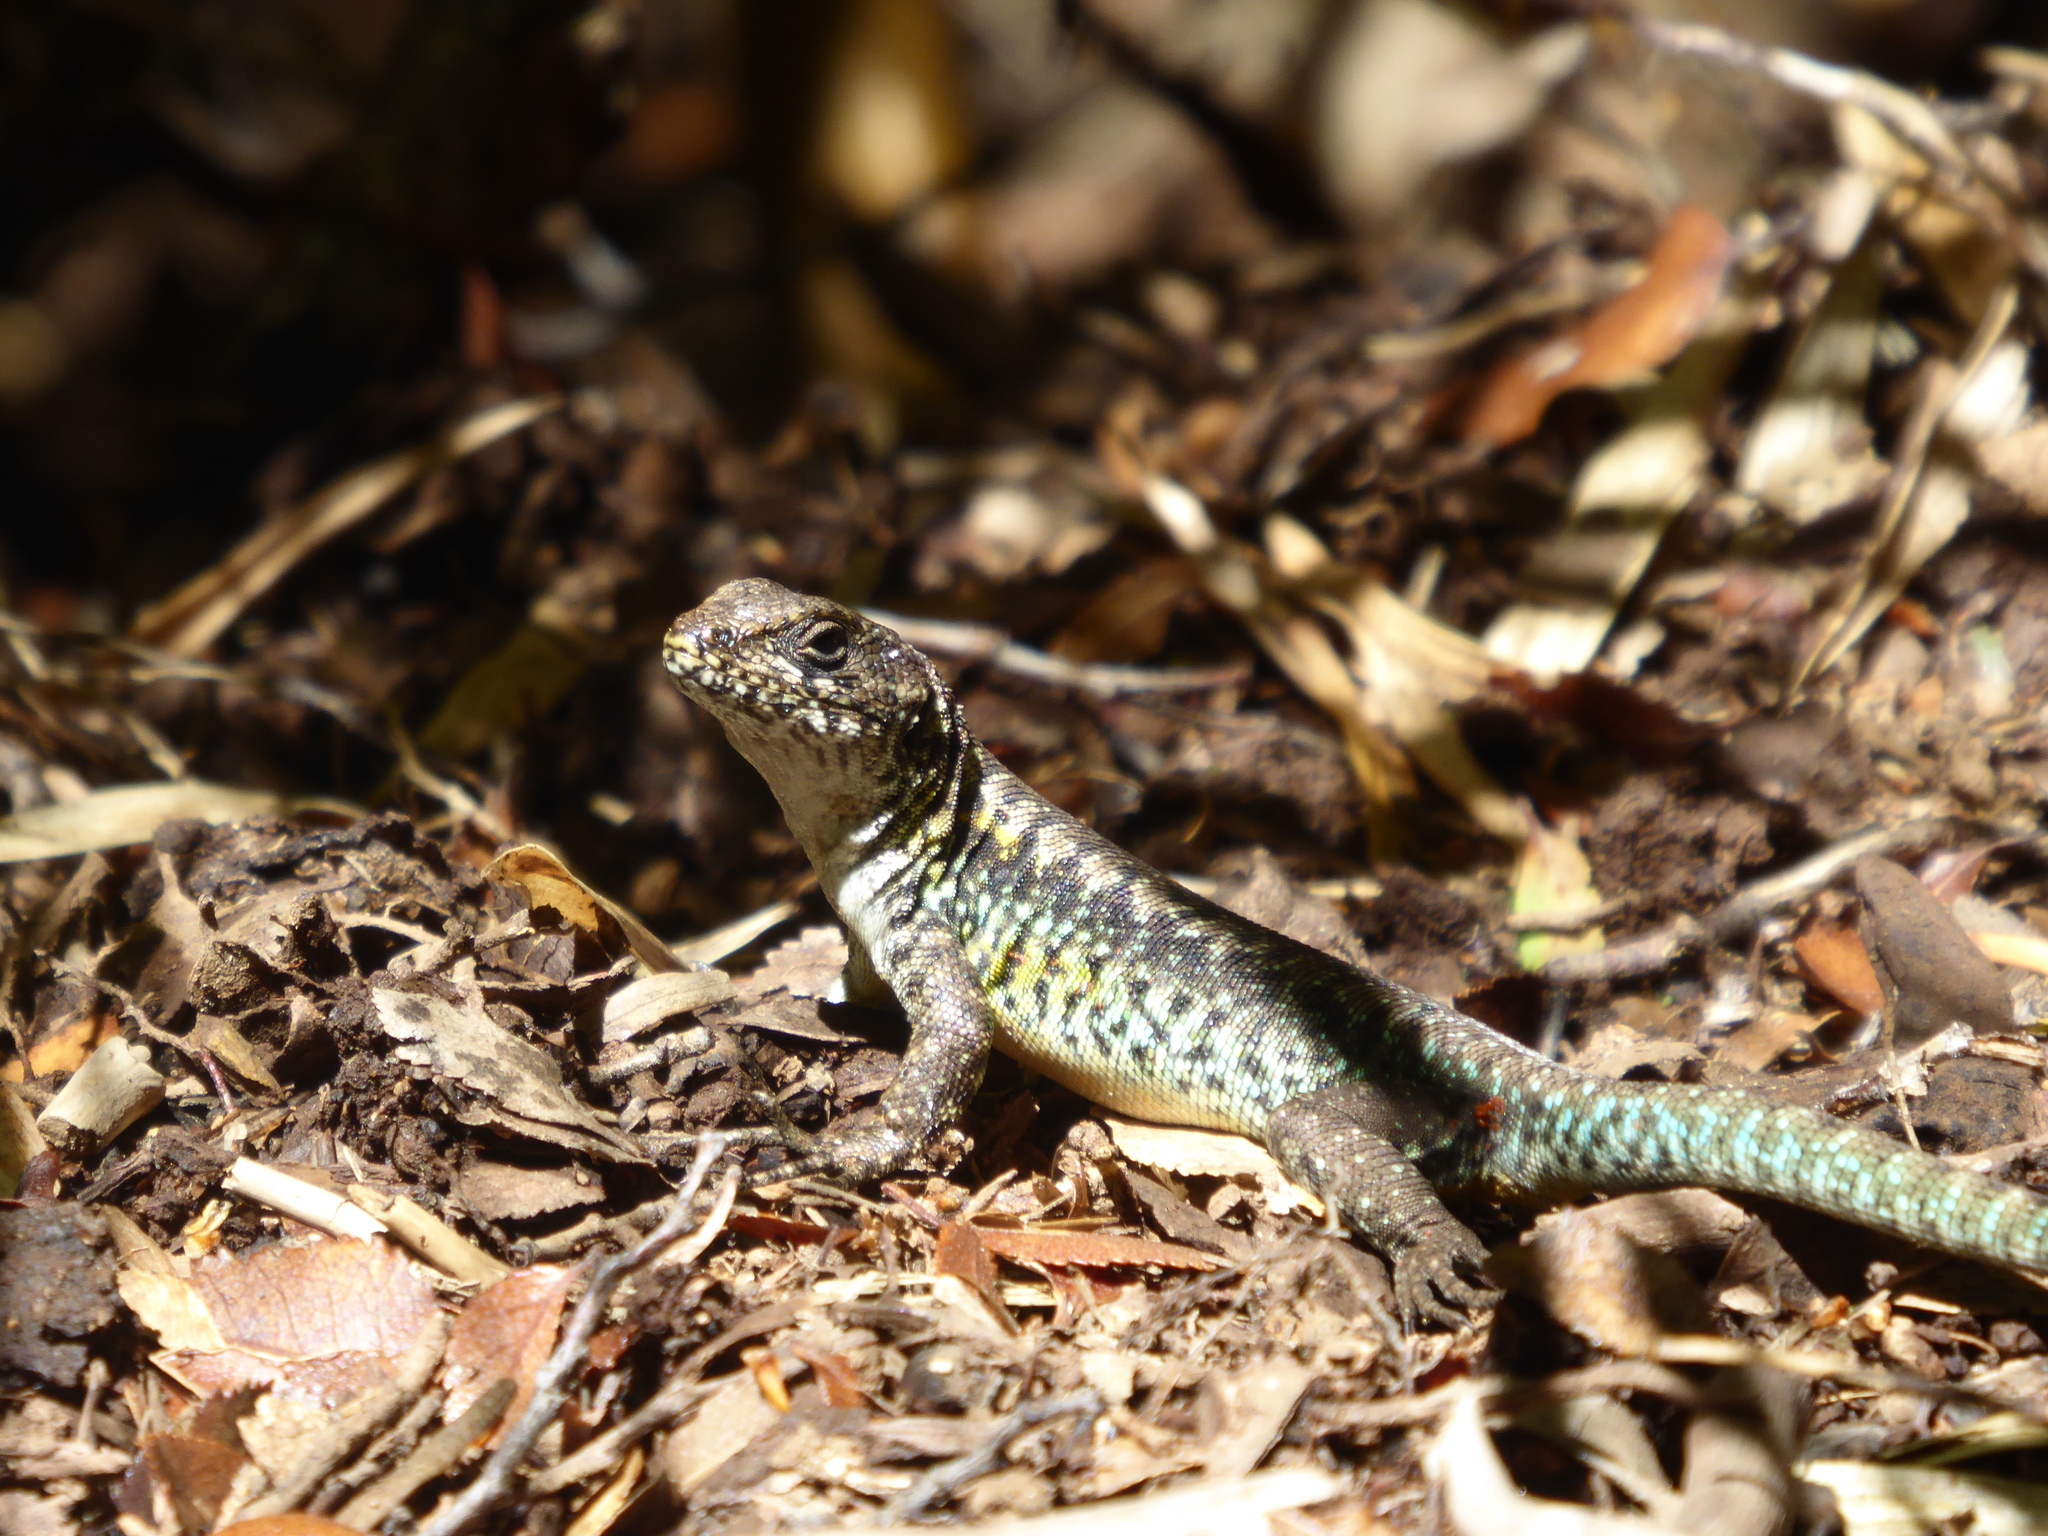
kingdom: Animalia
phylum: Chordata
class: Squamata
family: Liolaemidae
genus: Liolaemus
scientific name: Liolaemus pictus
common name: Painted tree iguana
